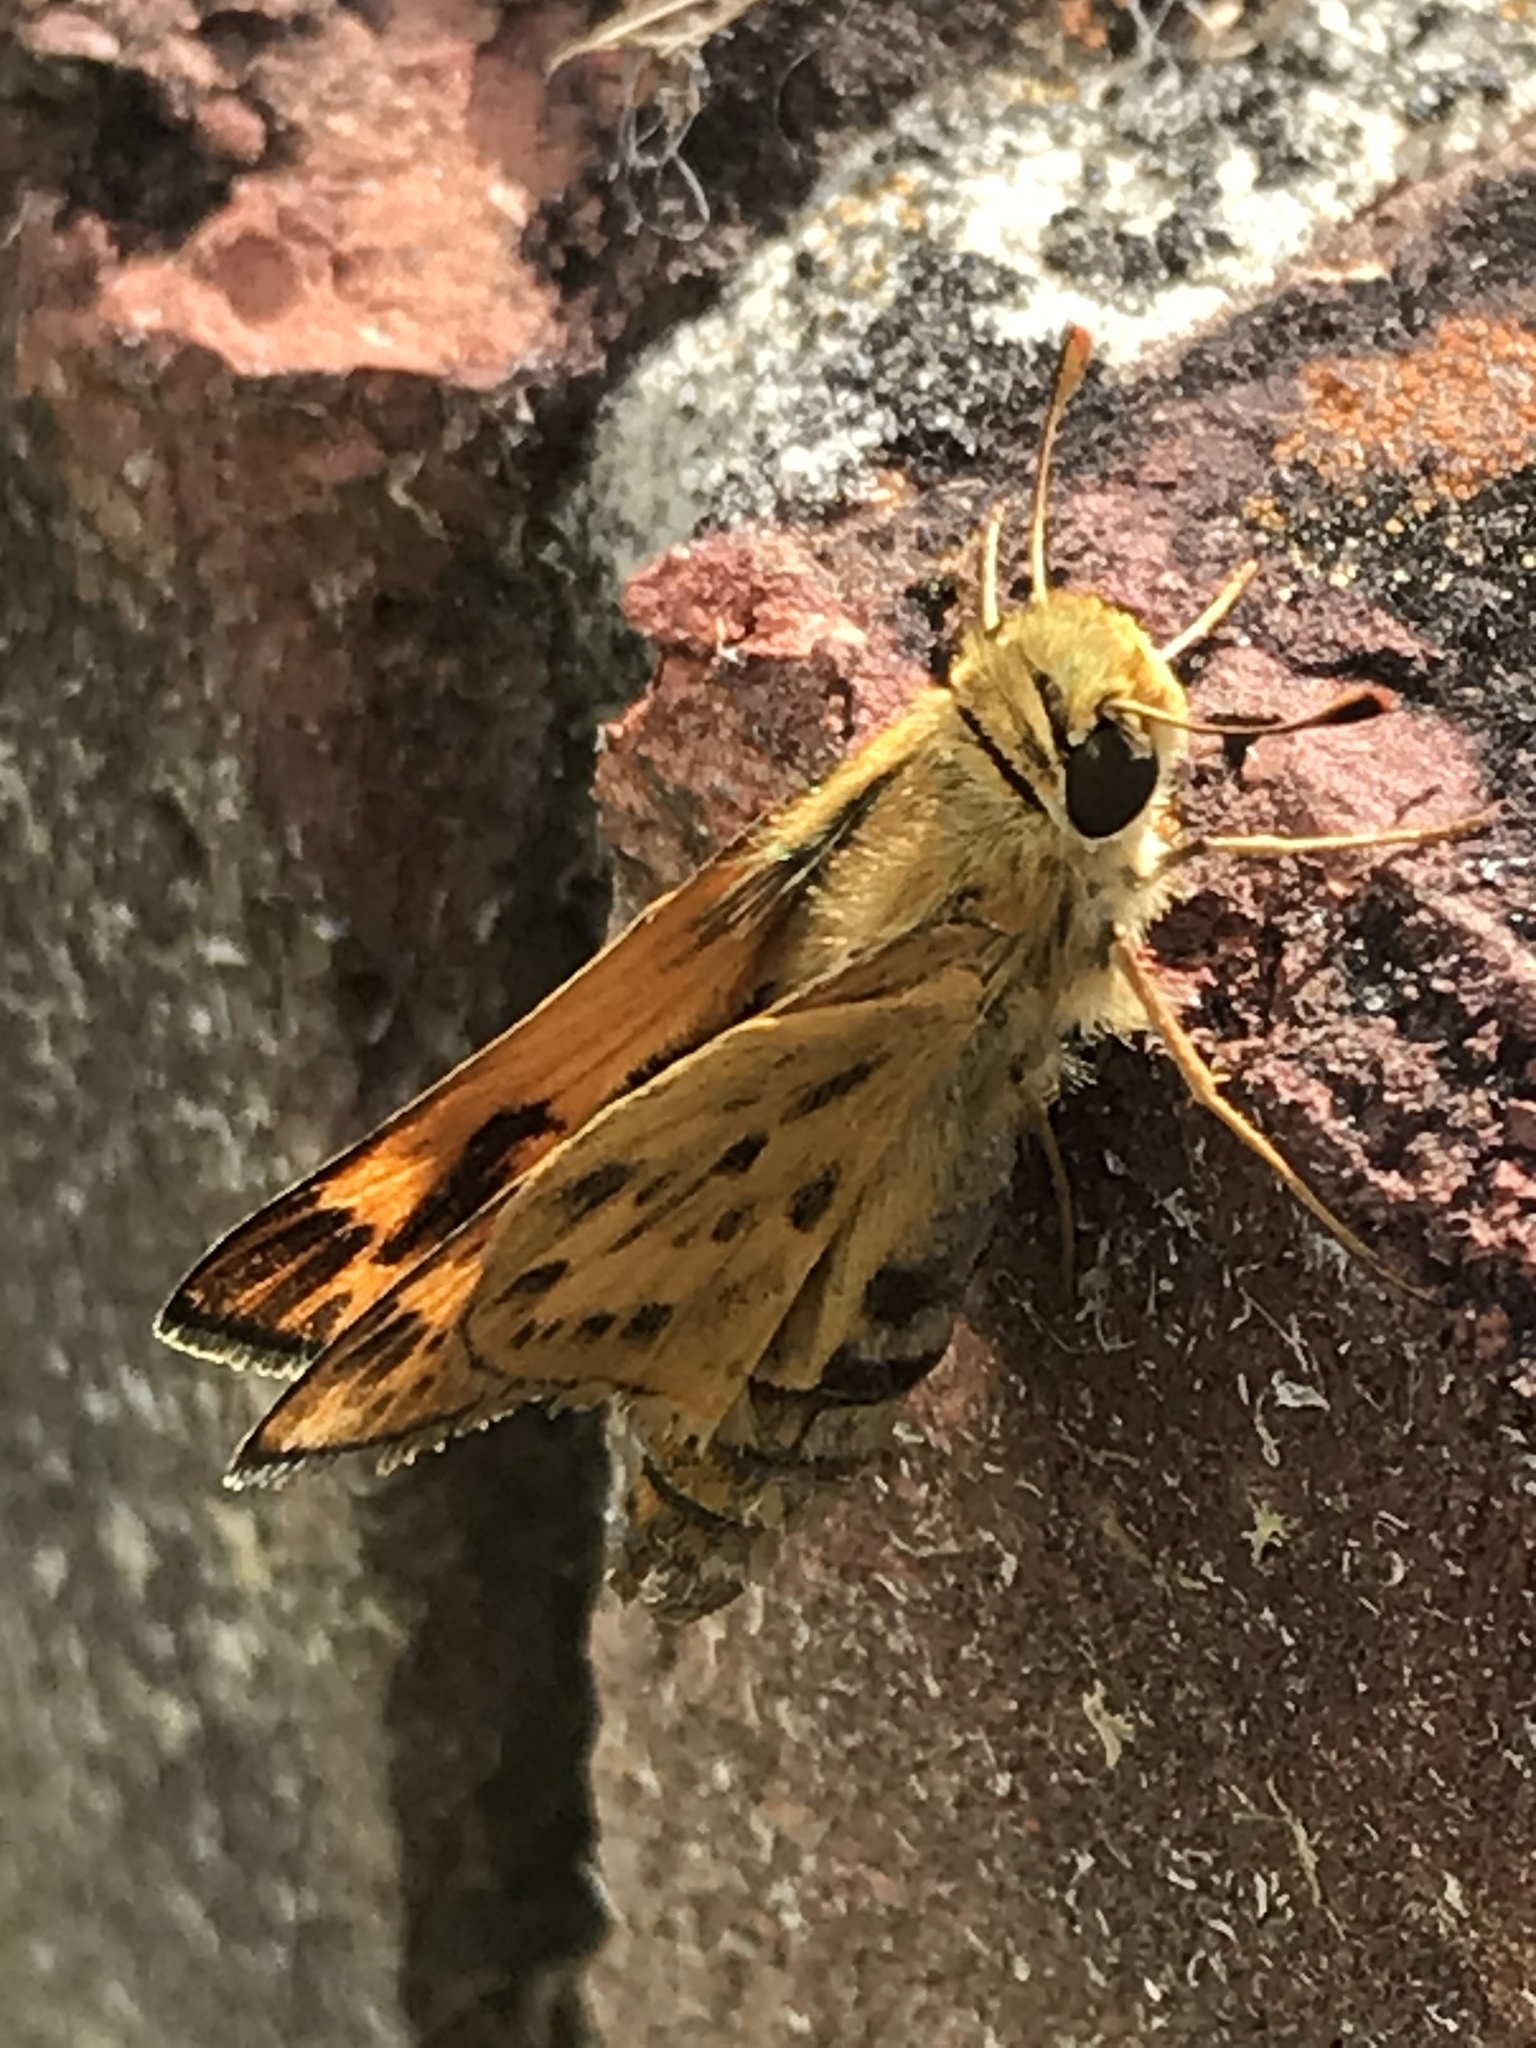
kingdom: Animalia
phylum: Arthropoda
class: Insecta
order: Lepidoptera
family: Hesperiidae
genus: Hylephila
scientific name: Hylephila phyleus
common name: Fiery skipper
